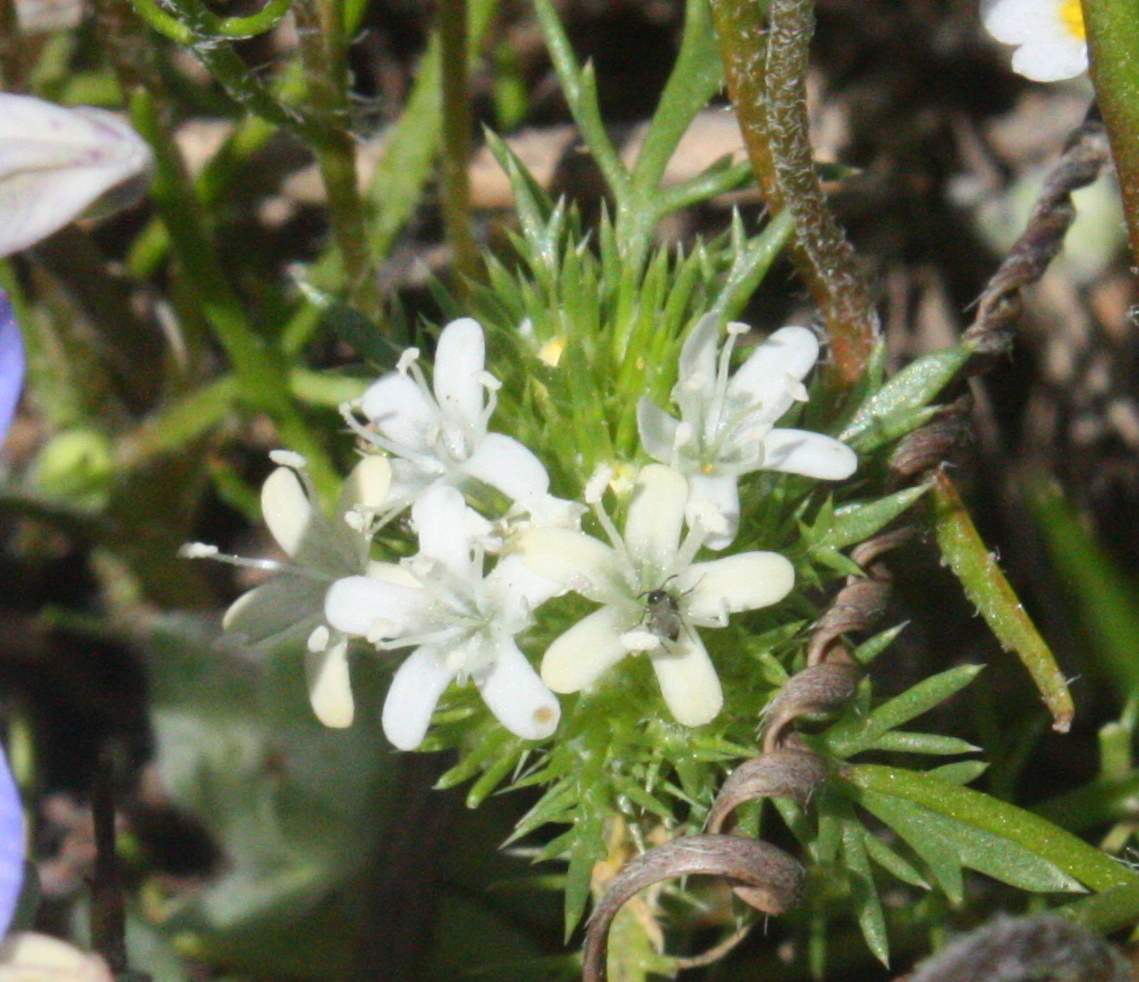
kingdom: Plantae
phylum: Tracheophyta
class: Magnoliopsida
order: Ericales
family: Polemoniaceae
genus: Navarretia
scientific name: Navarretia leucocephala
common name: White-flowered navarretia
